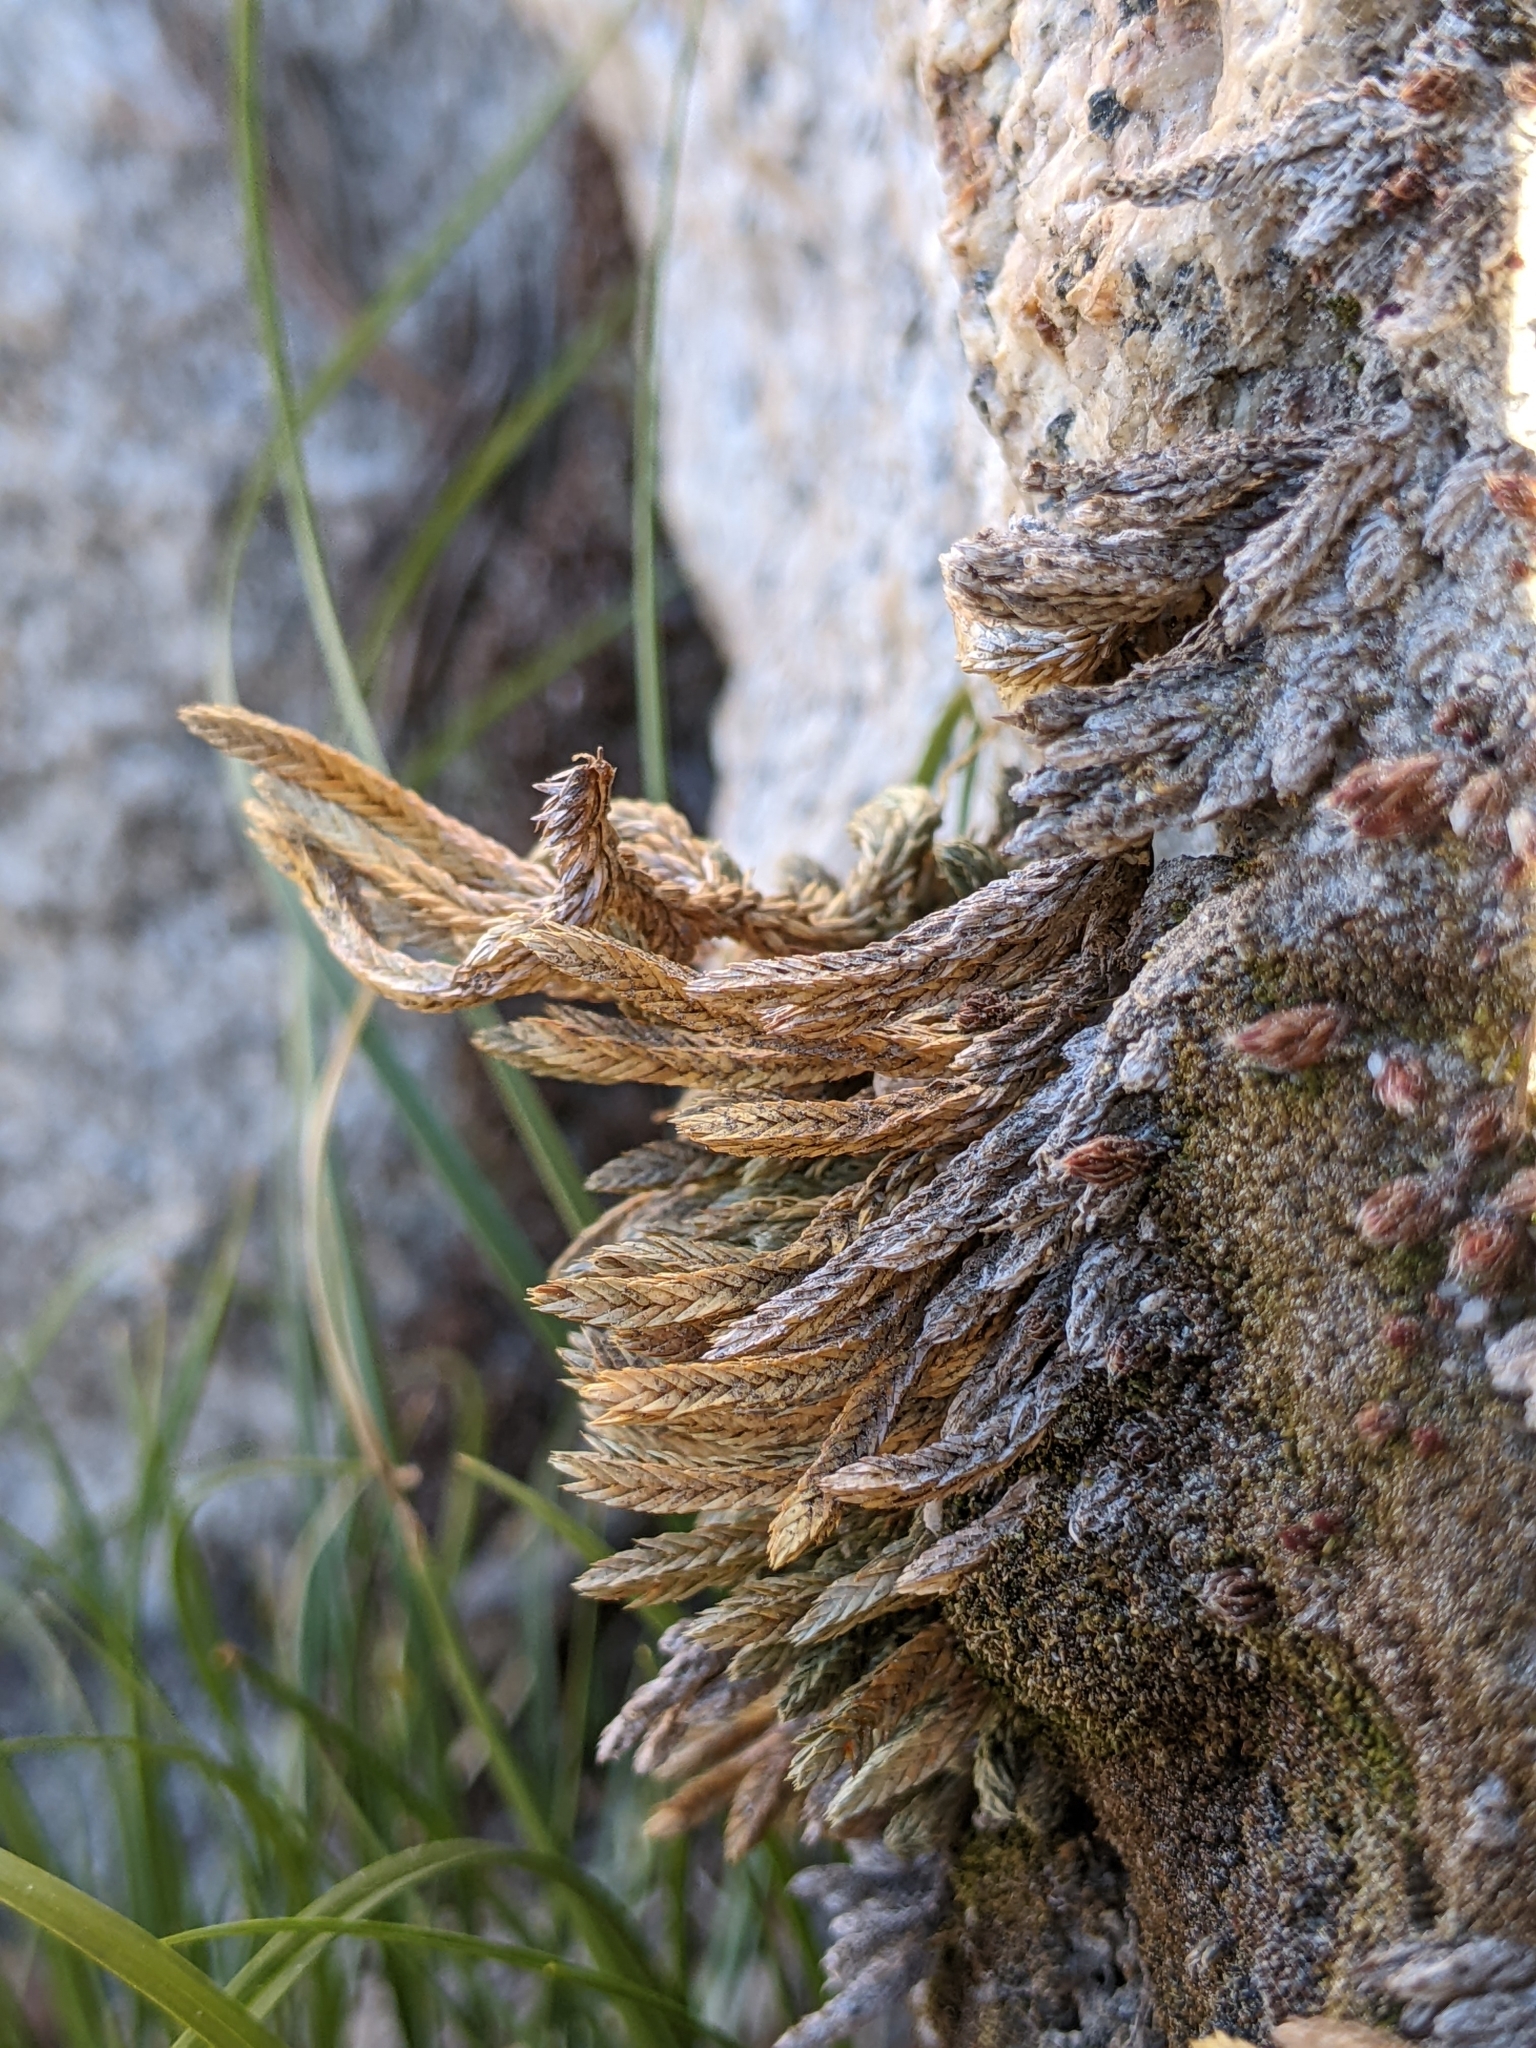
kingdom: Plantae
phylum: Tracheophyta
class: Lycopodiopsida
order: Selaginellales
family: Selaginellaceae
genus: Selaginella
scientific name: Selaginella watsonii
